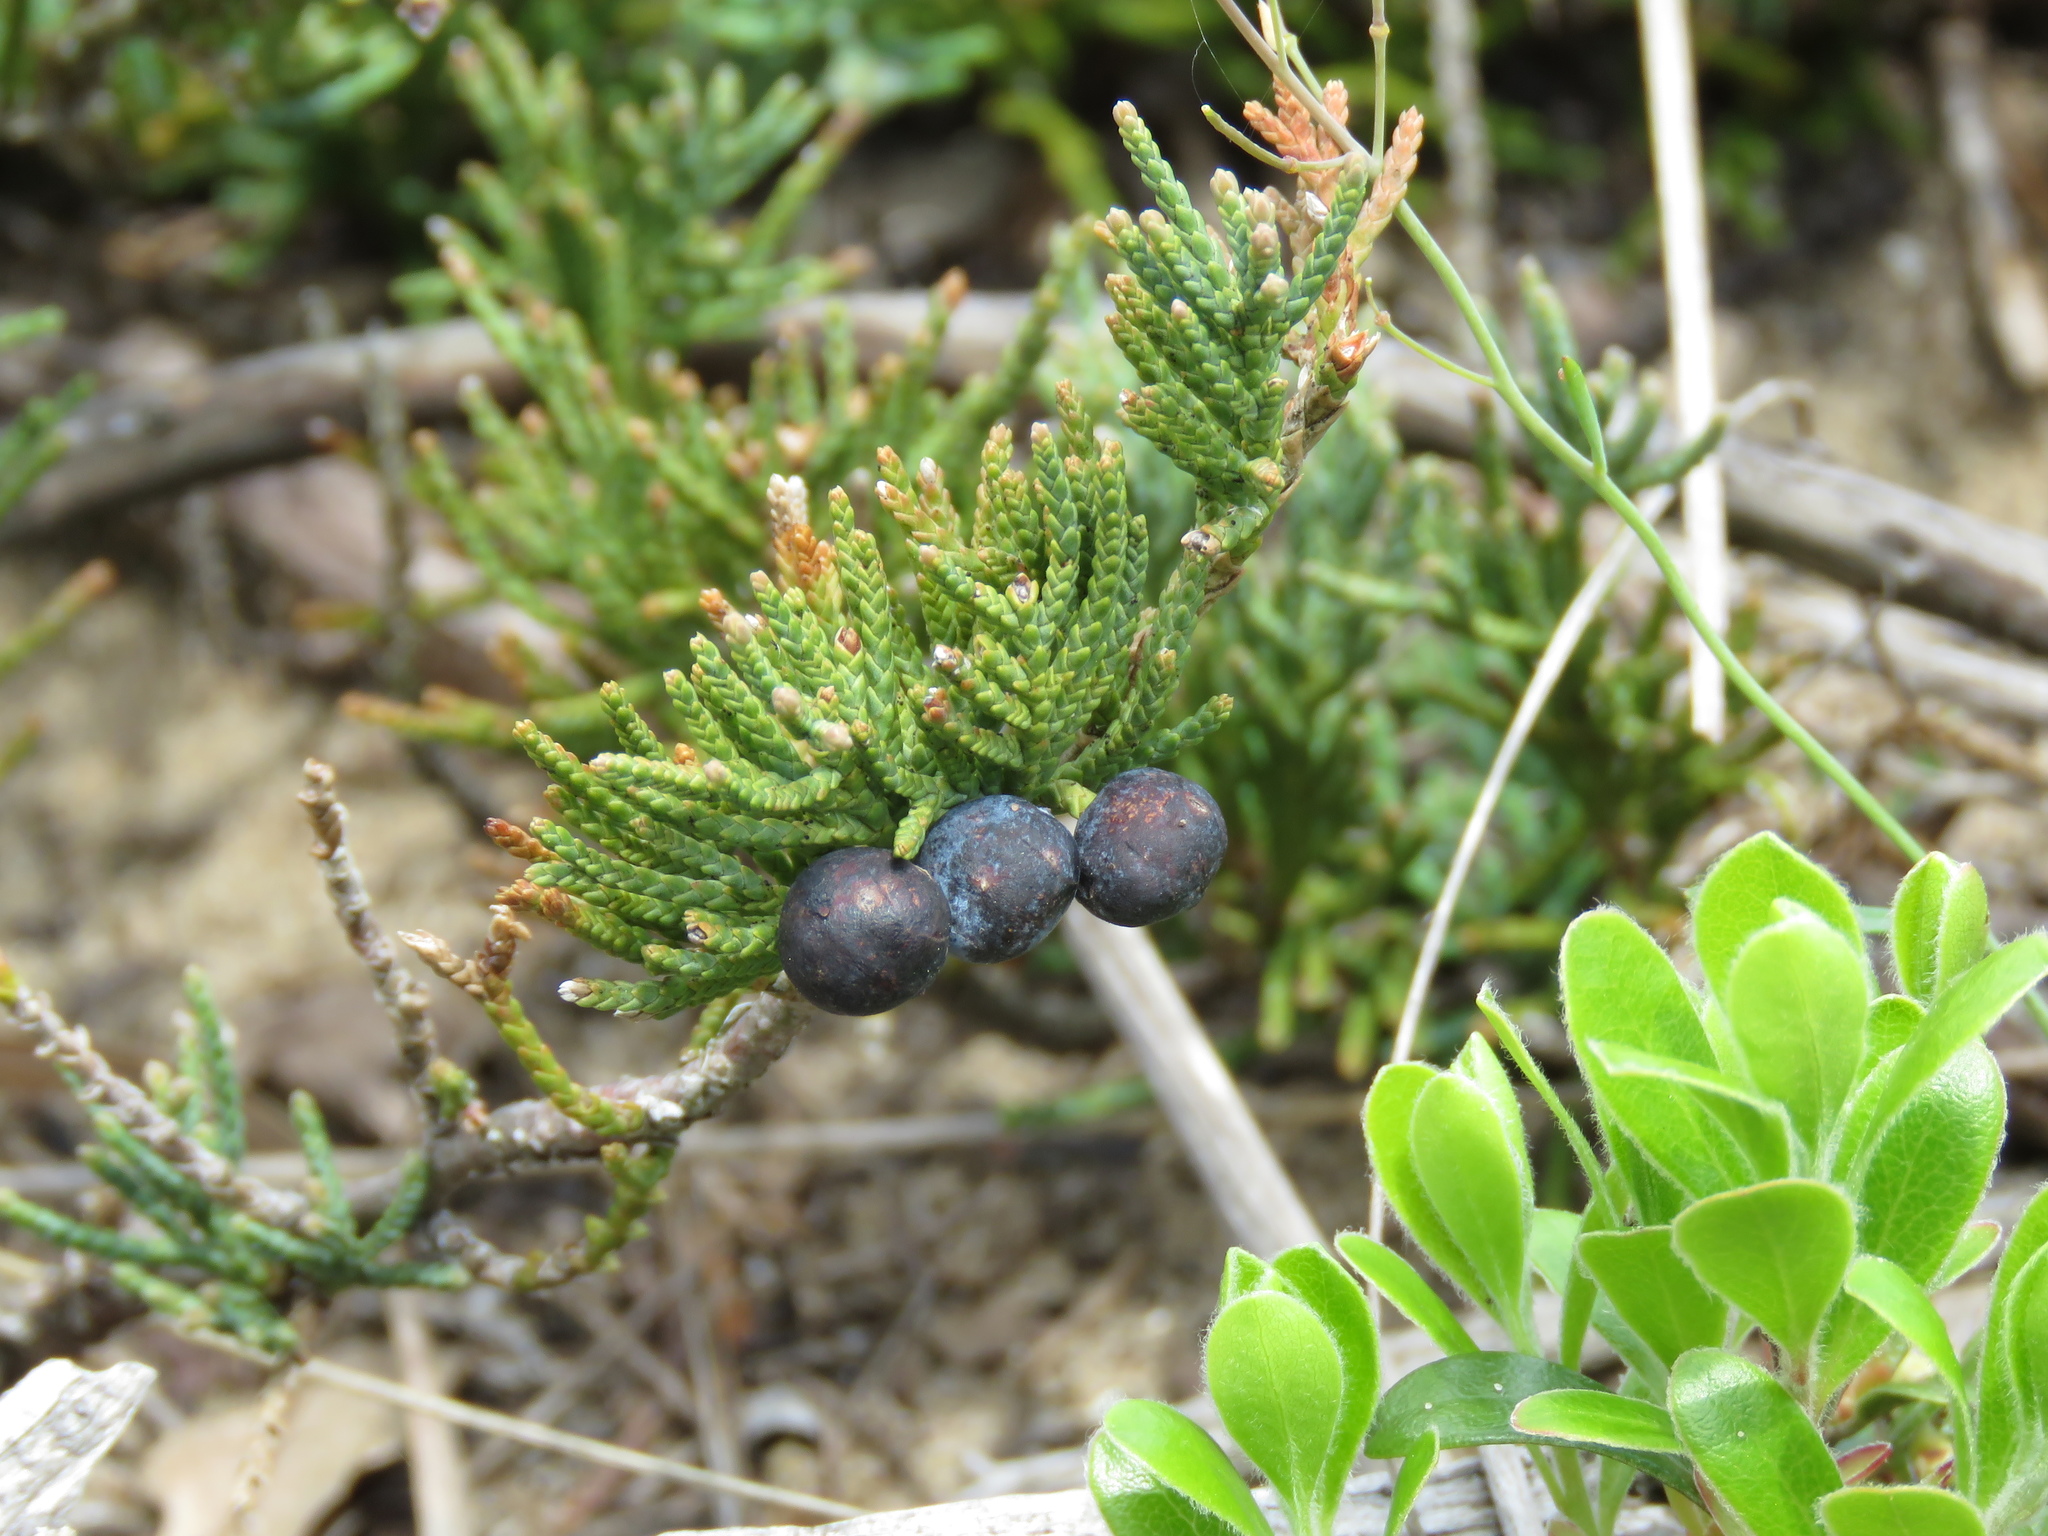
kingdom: Plantae
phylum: Tracheophyta
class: Pinopsida
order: Pinales
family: Cupressaceae
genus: Juniperus
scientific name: Juniperus horizontalis
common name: Creeping juniper
